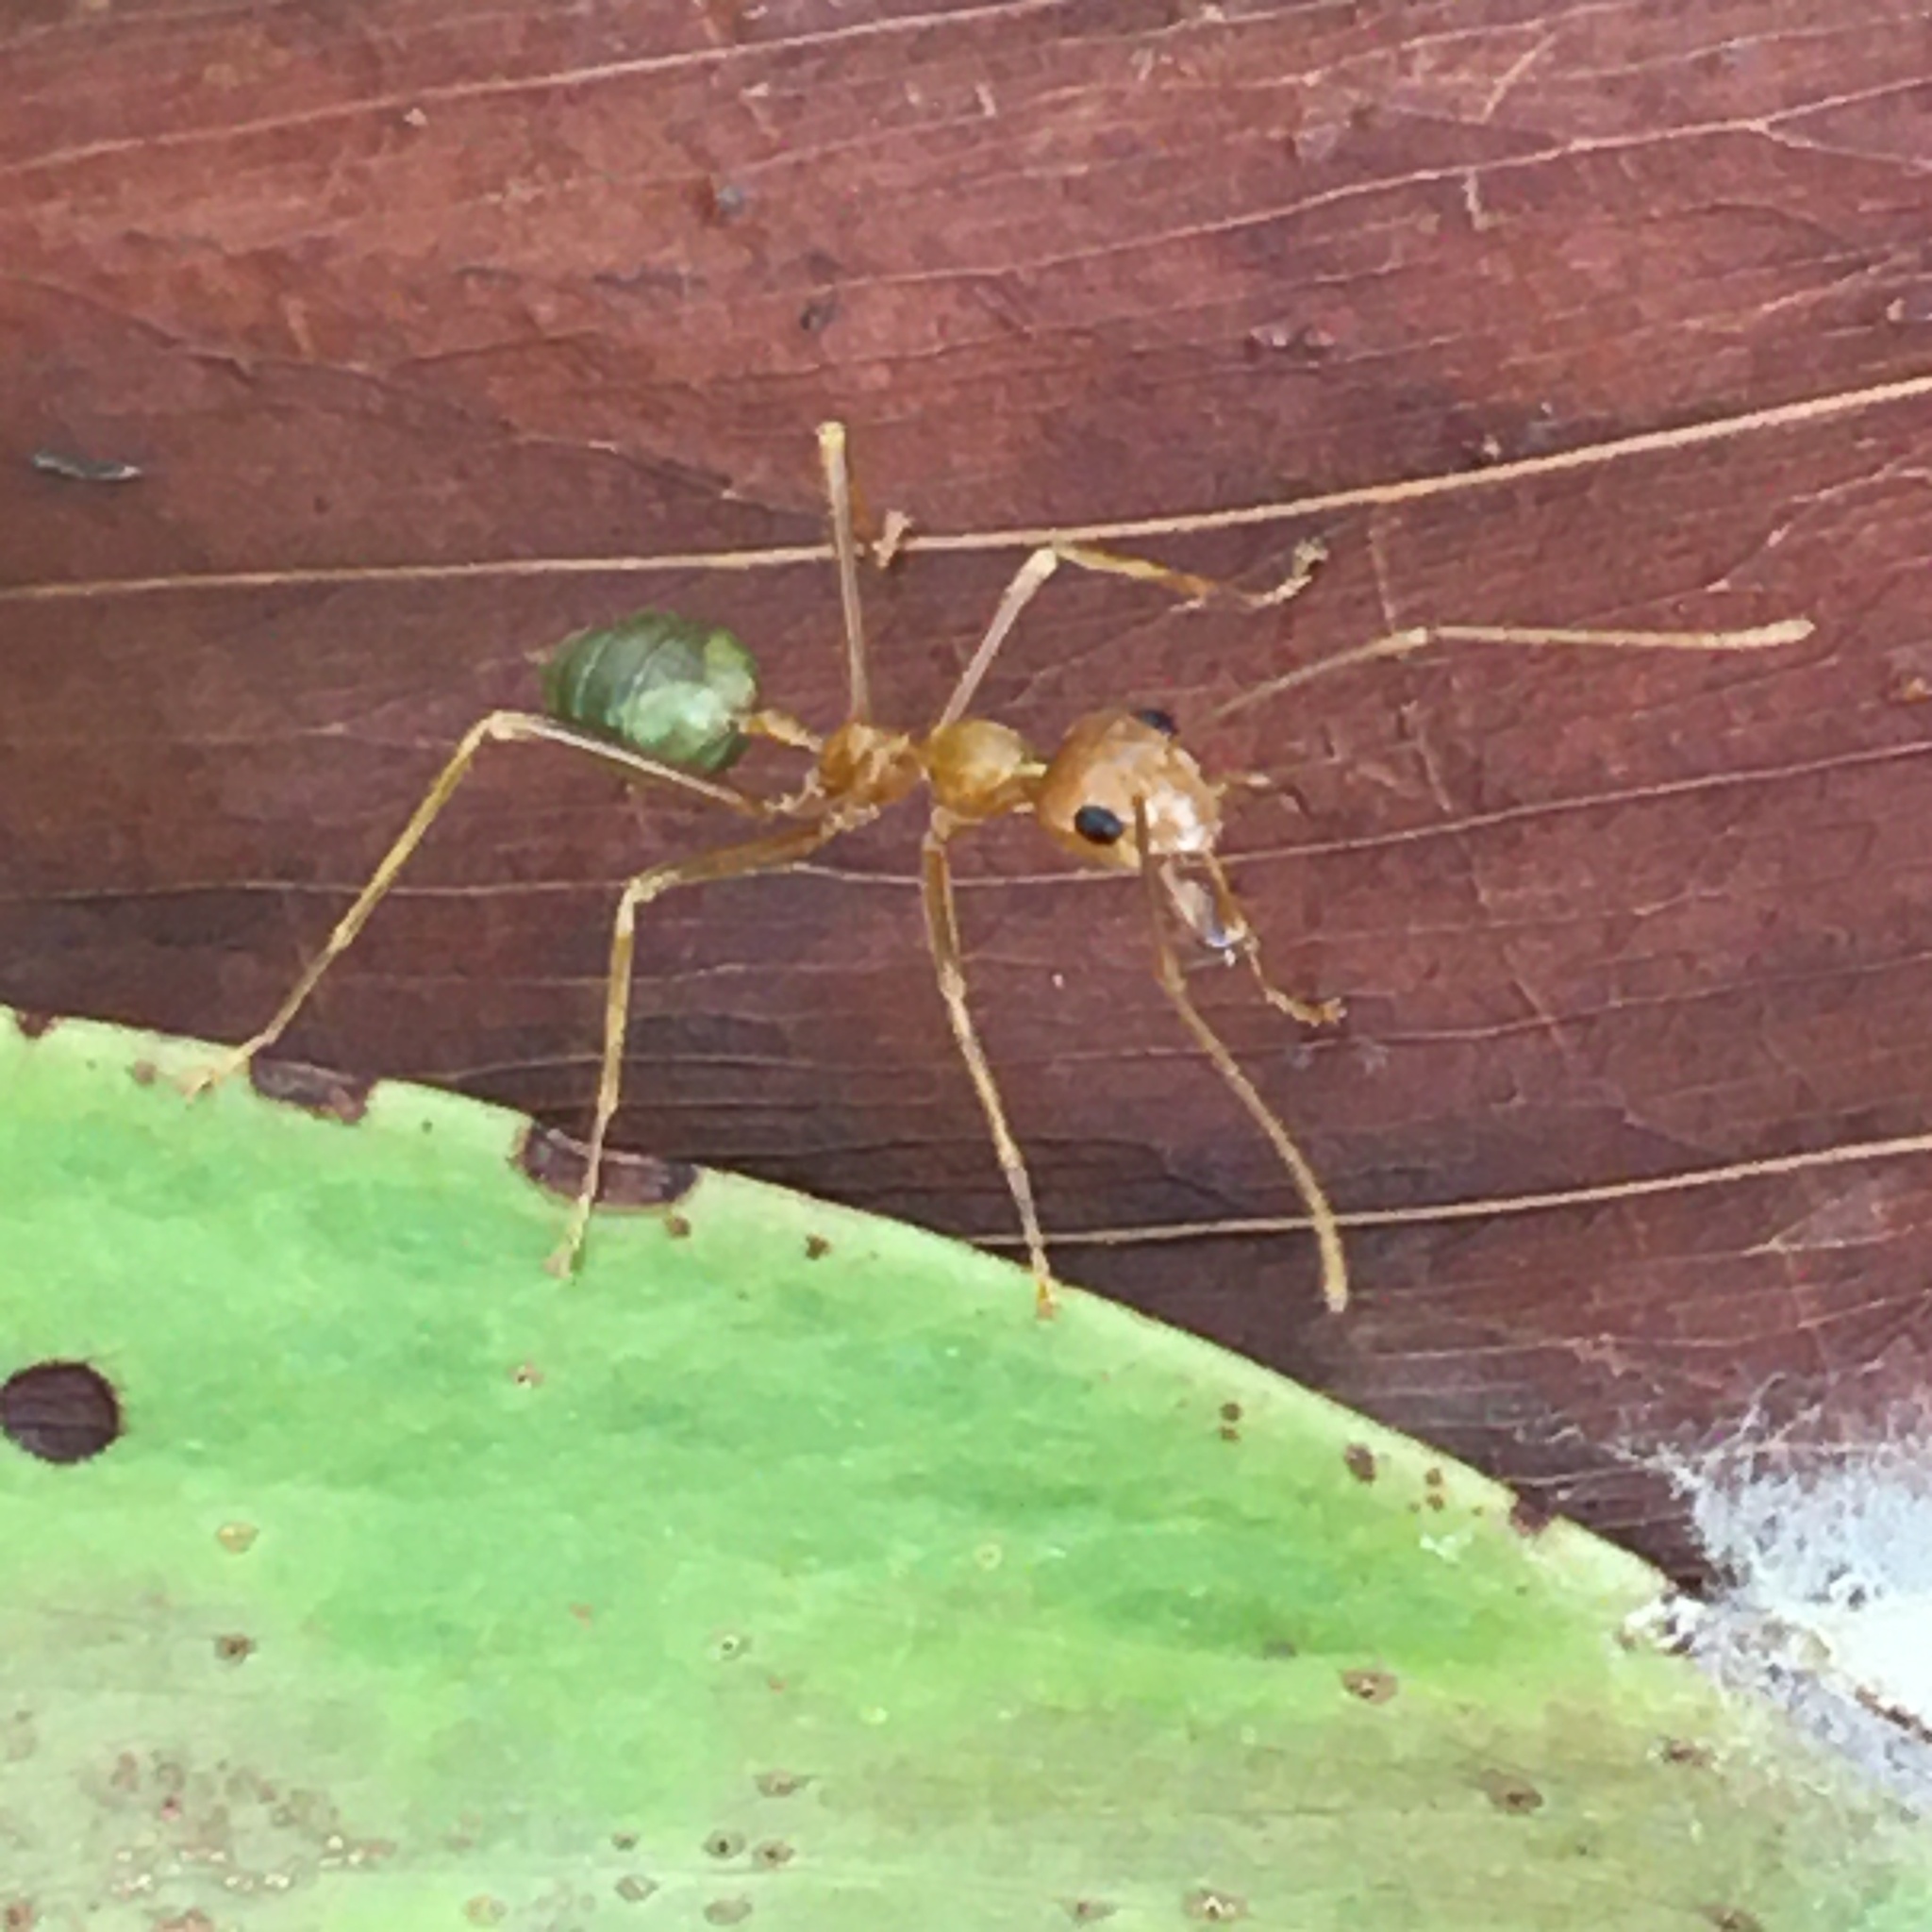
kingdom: Animalia
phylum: Arthropoda
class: Insecta
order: Hymenoptera
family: Formicidae
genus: Oecophylla
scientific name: Oecophylla smaragdina
